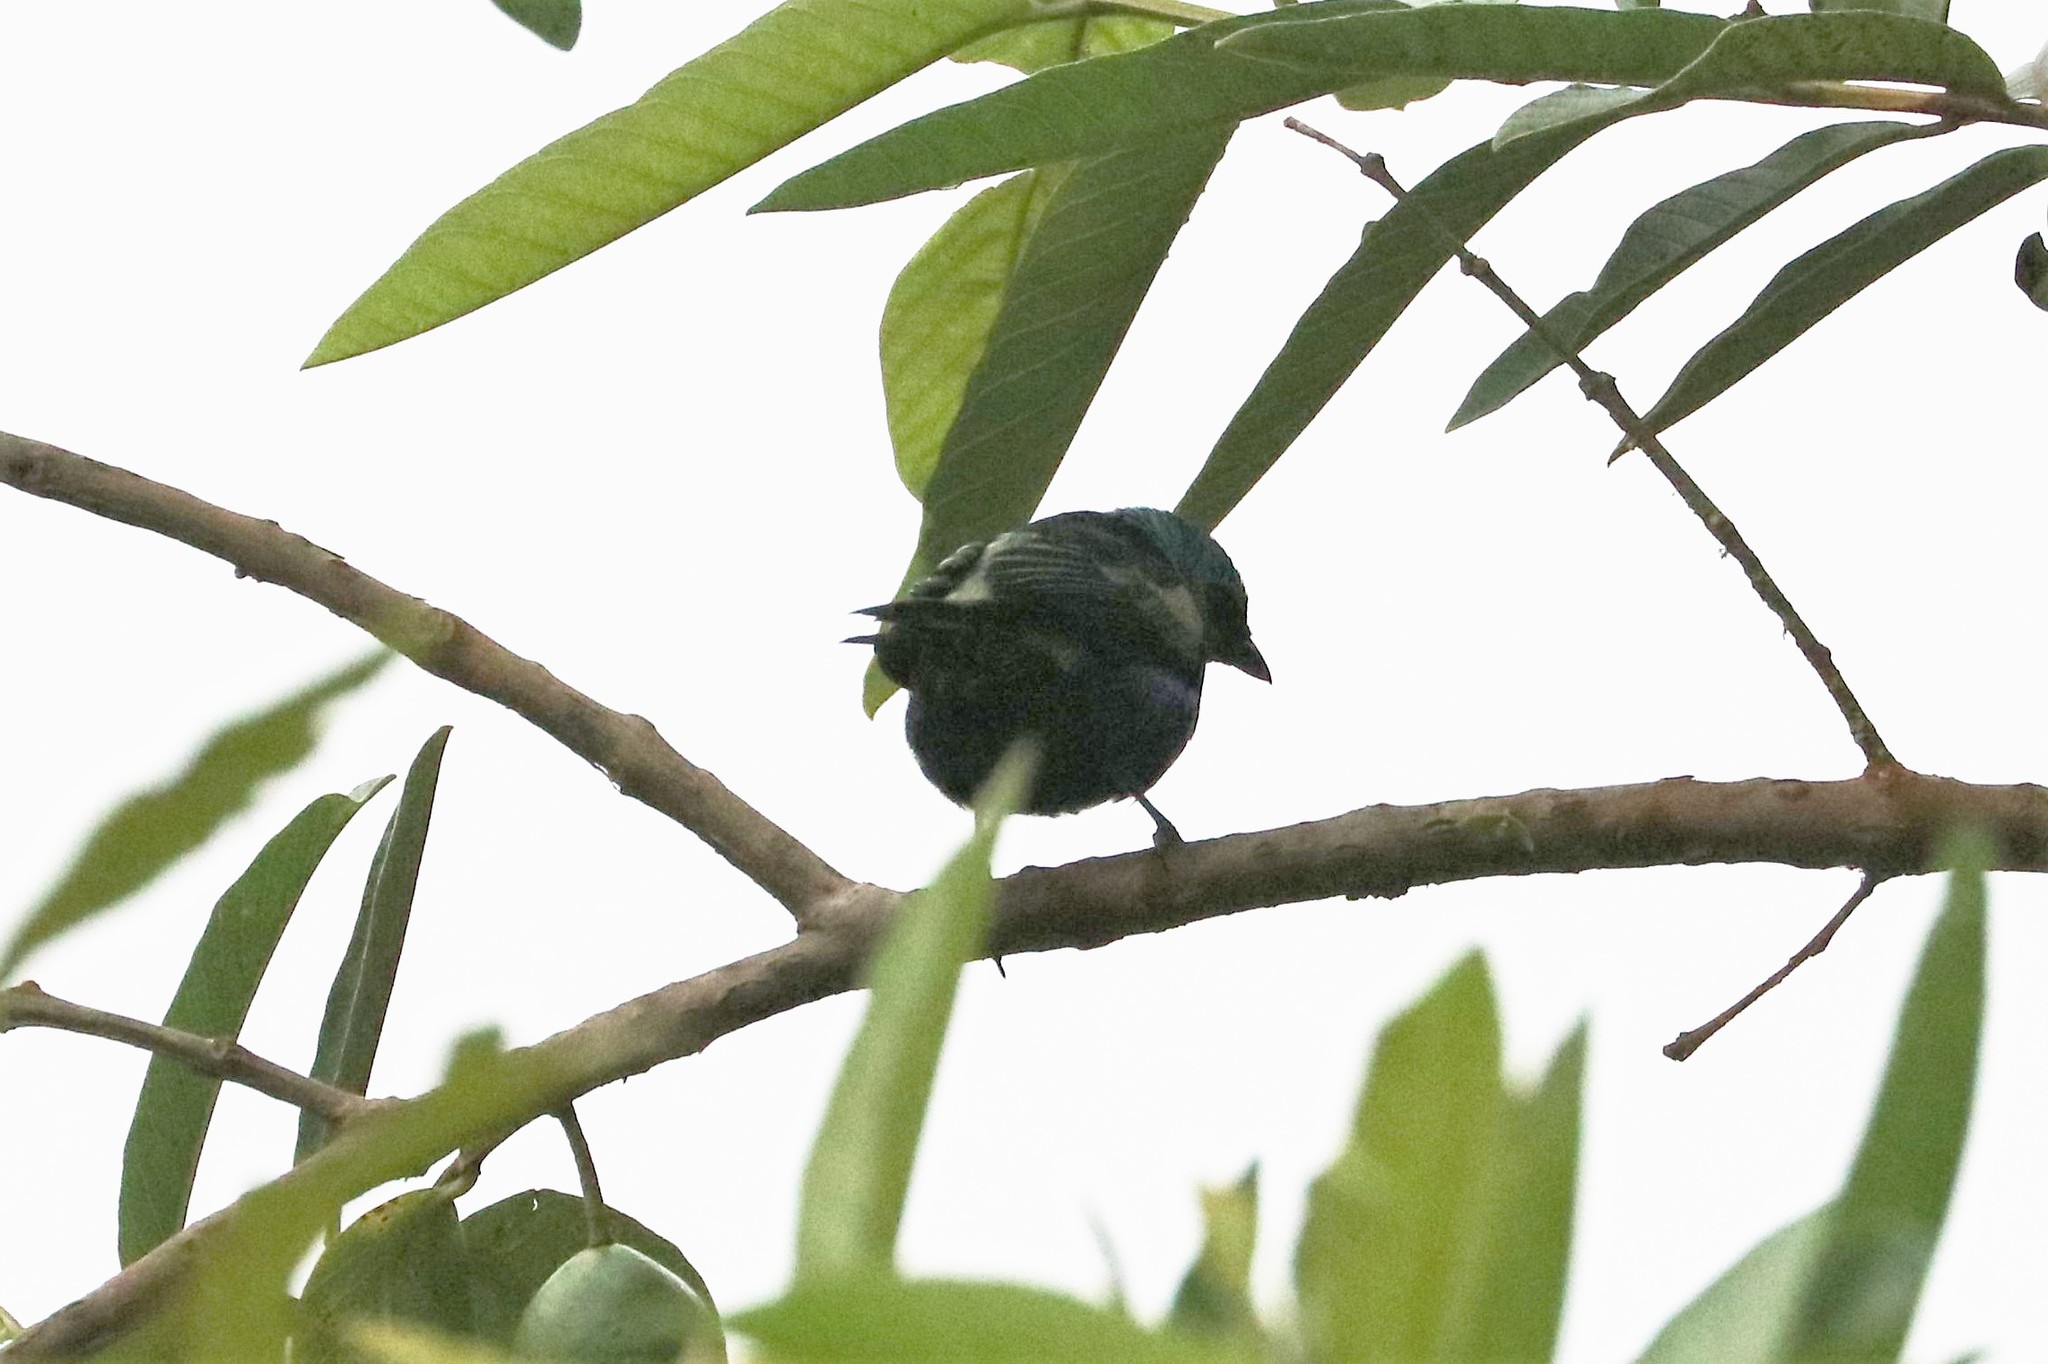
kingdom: Animalia
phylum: Chordata
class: Aves
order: Passeriformes
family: Thraupidae
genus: Stilpnia
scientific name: Stilpnia cyanicollis
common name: Blue-necked tanager
